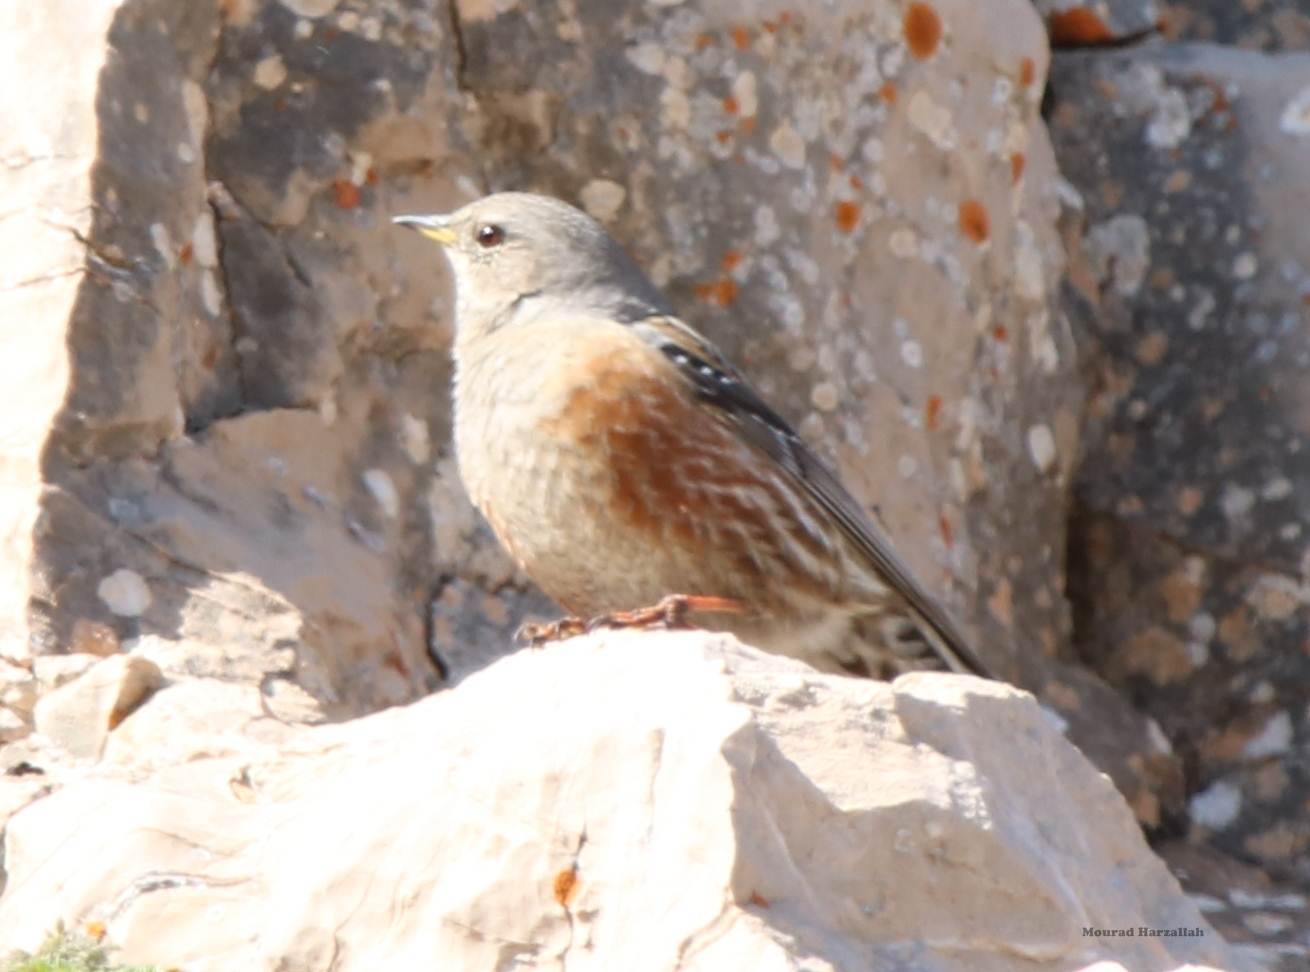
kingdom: Animalia
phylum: Chordata
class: Aves
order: Passeriformes
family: Prunellidae
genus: Prunella
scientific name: Prunella collaris
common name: Alpine accentor
